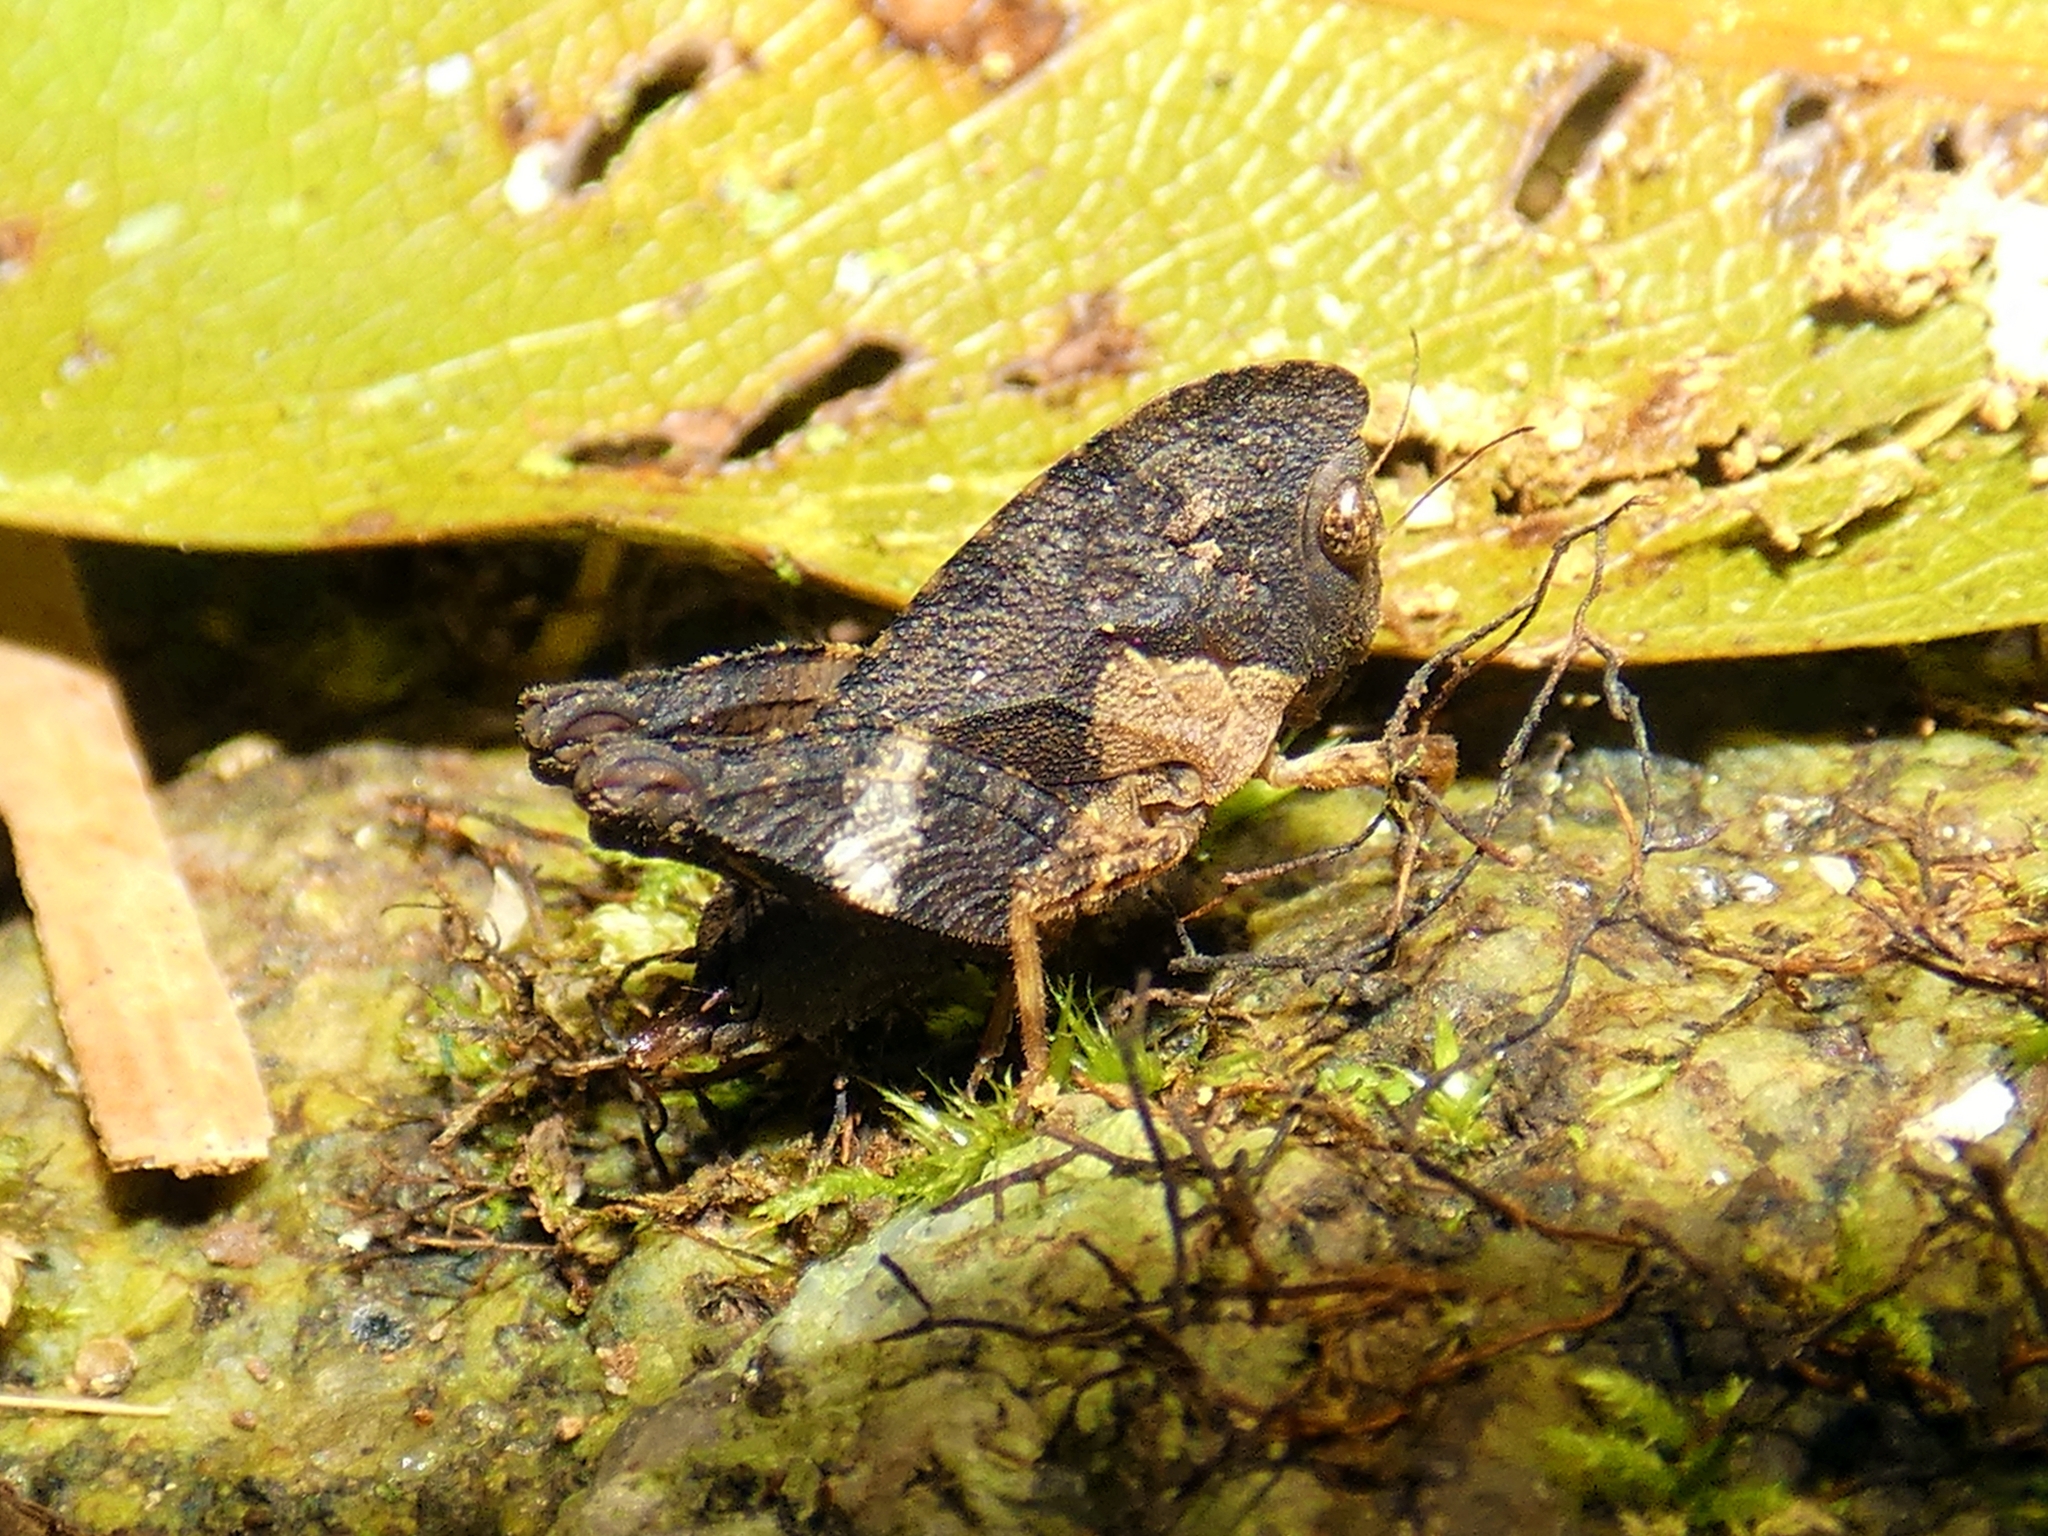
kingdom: Animalia
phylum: Arthropoda
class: Insecta
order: Orthoptera
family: Tetrigidae
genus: Selivinga
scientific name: Selivinga tribulata
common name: Tribulation helmed groundhopper
